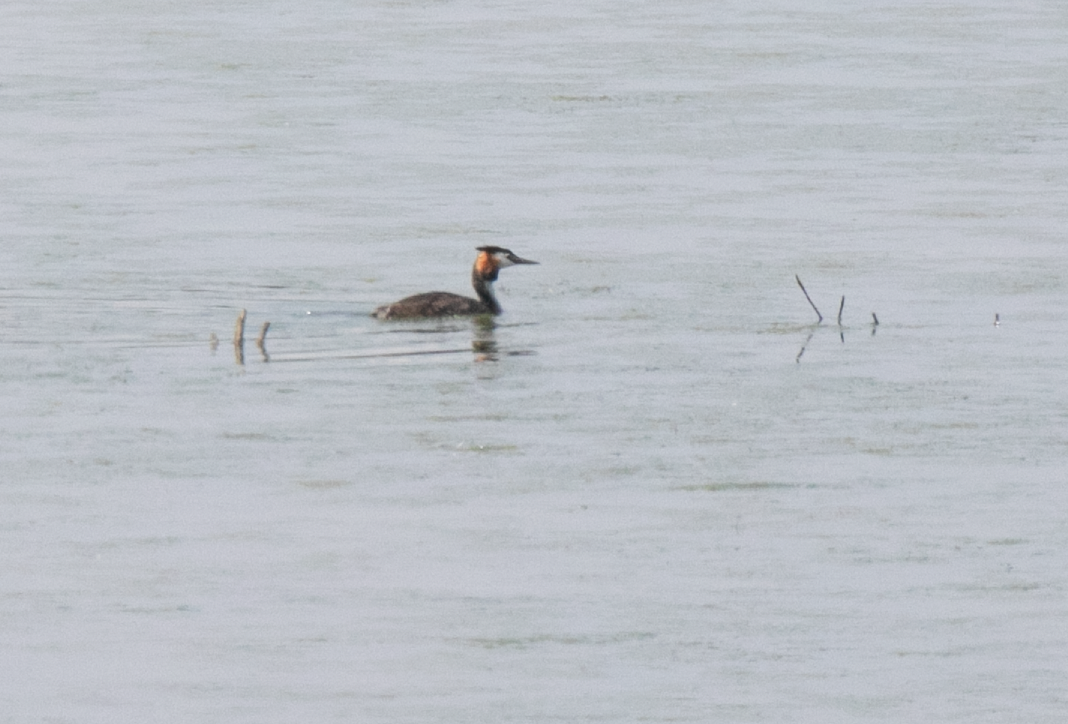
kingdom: Animalia
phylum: Chordata
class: Aves
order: Podicipediformes
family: Podicipedidae
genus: Podiceps
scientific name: Podiceps cristatus
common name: Great crested grebe
